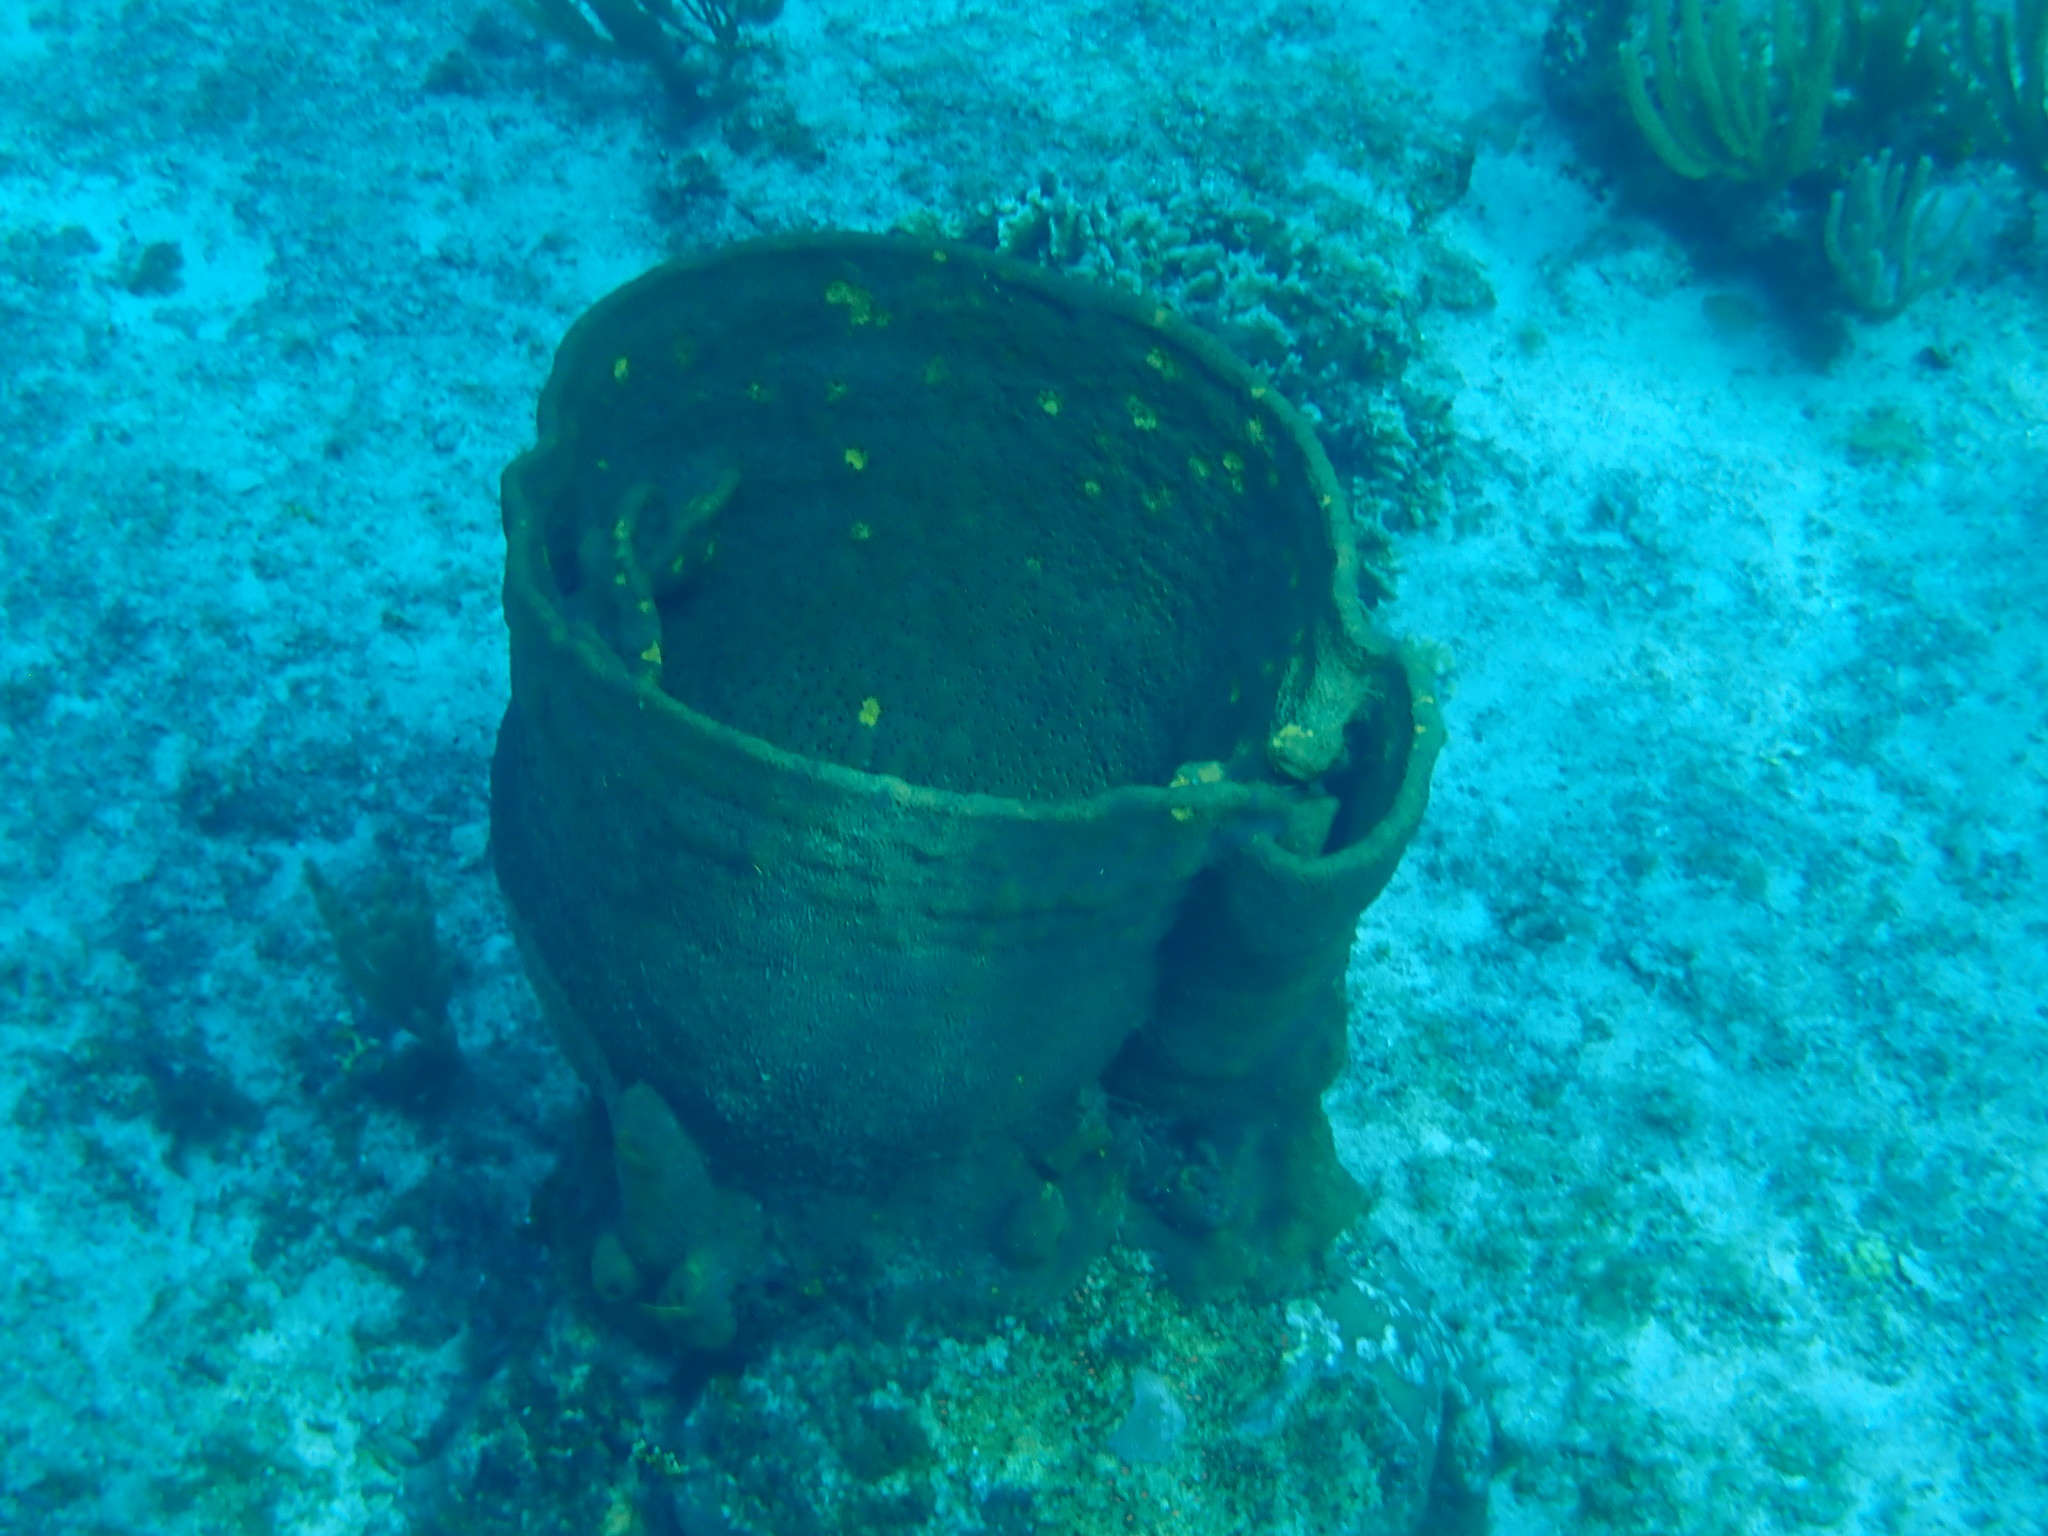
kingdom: Animalia
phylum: Porifera
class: Demospongiae
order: Verongiida
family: Aplysinidae
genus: Verongula
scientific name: Verongula gigantea
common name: Netted barrel sponge
